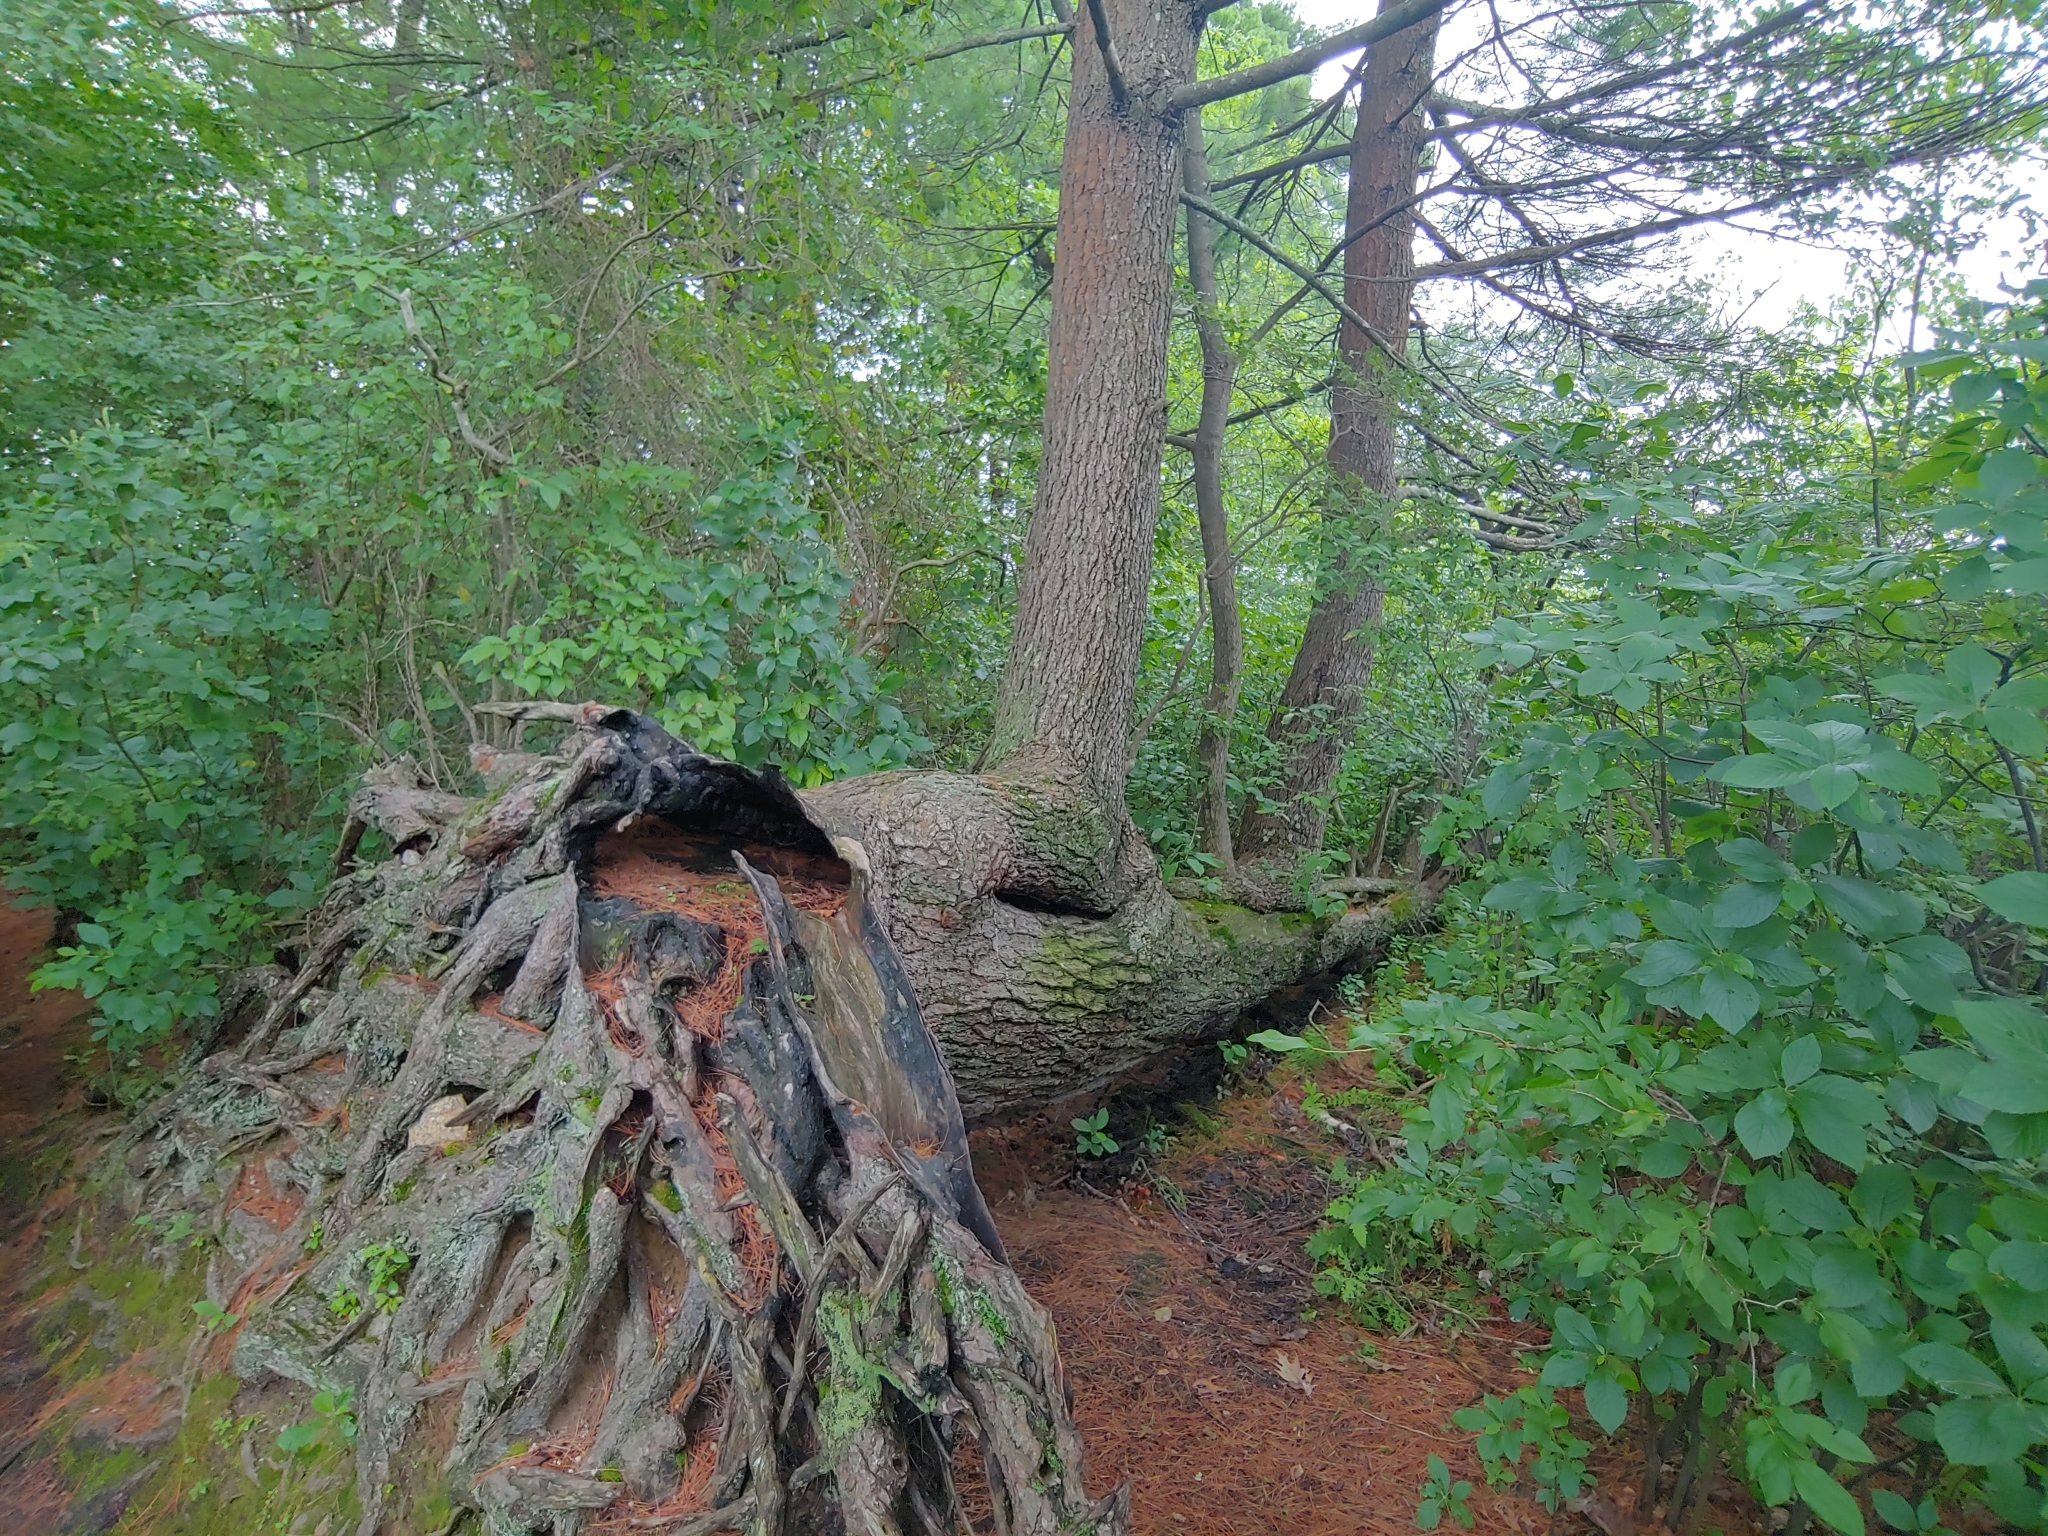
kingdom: Plantae
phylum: Tracheophyta
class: Pinopsida
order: Pinales
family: Pinaceae
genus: Pinus
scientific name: Pinus strobus
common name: Weymouth pine
